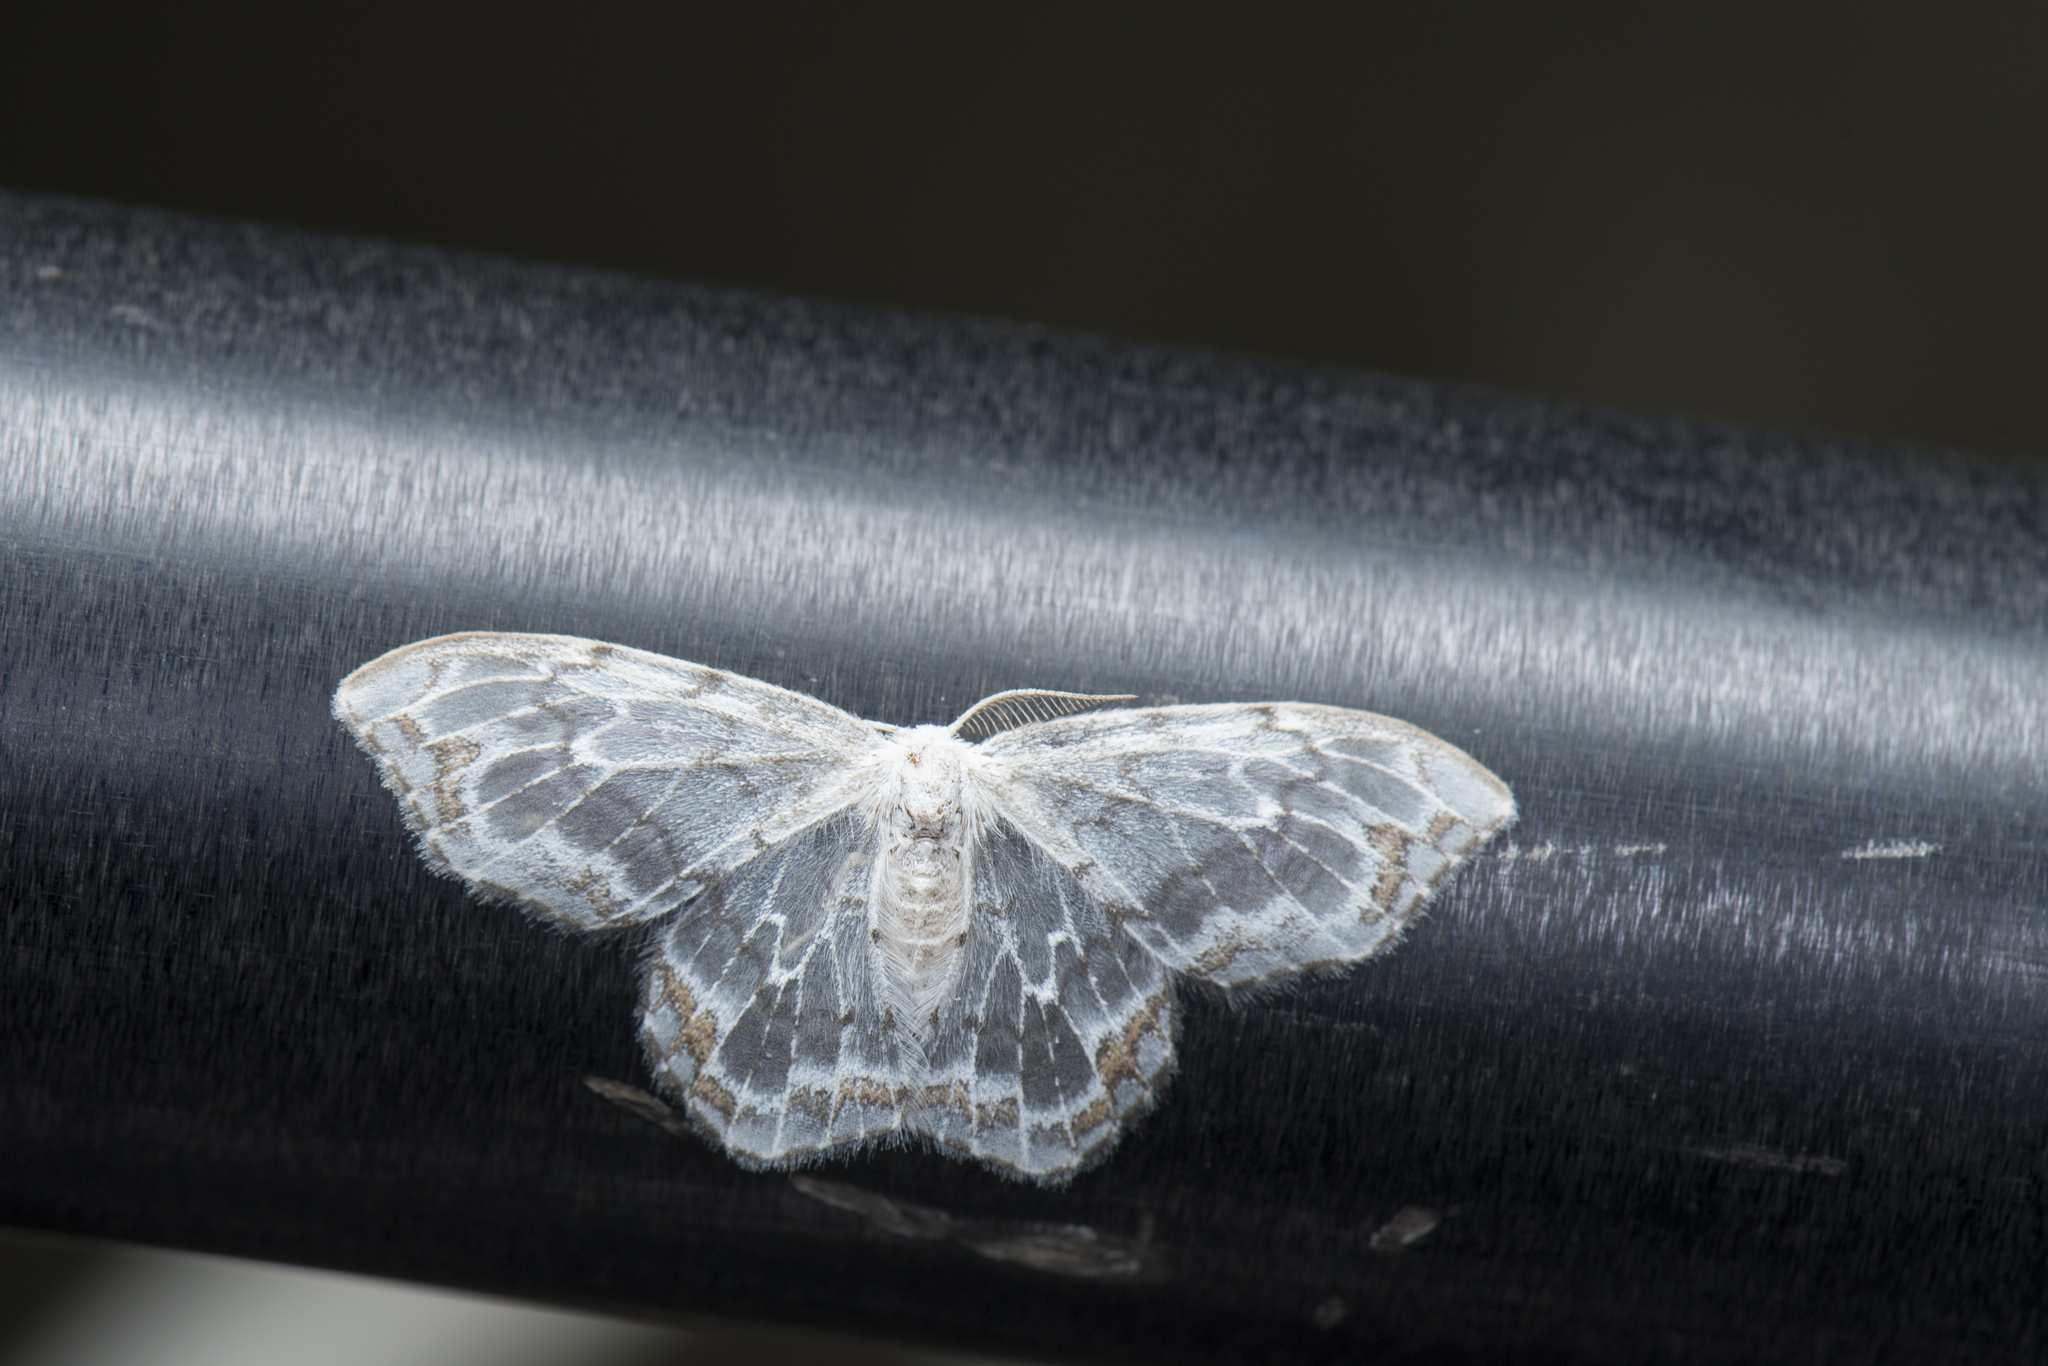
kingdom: Animalia
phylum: Arthropoda
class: Insecta
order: Lepidoptera
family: Drepanidae
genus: Auzatellodes
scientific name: Auzatellodes arizana
